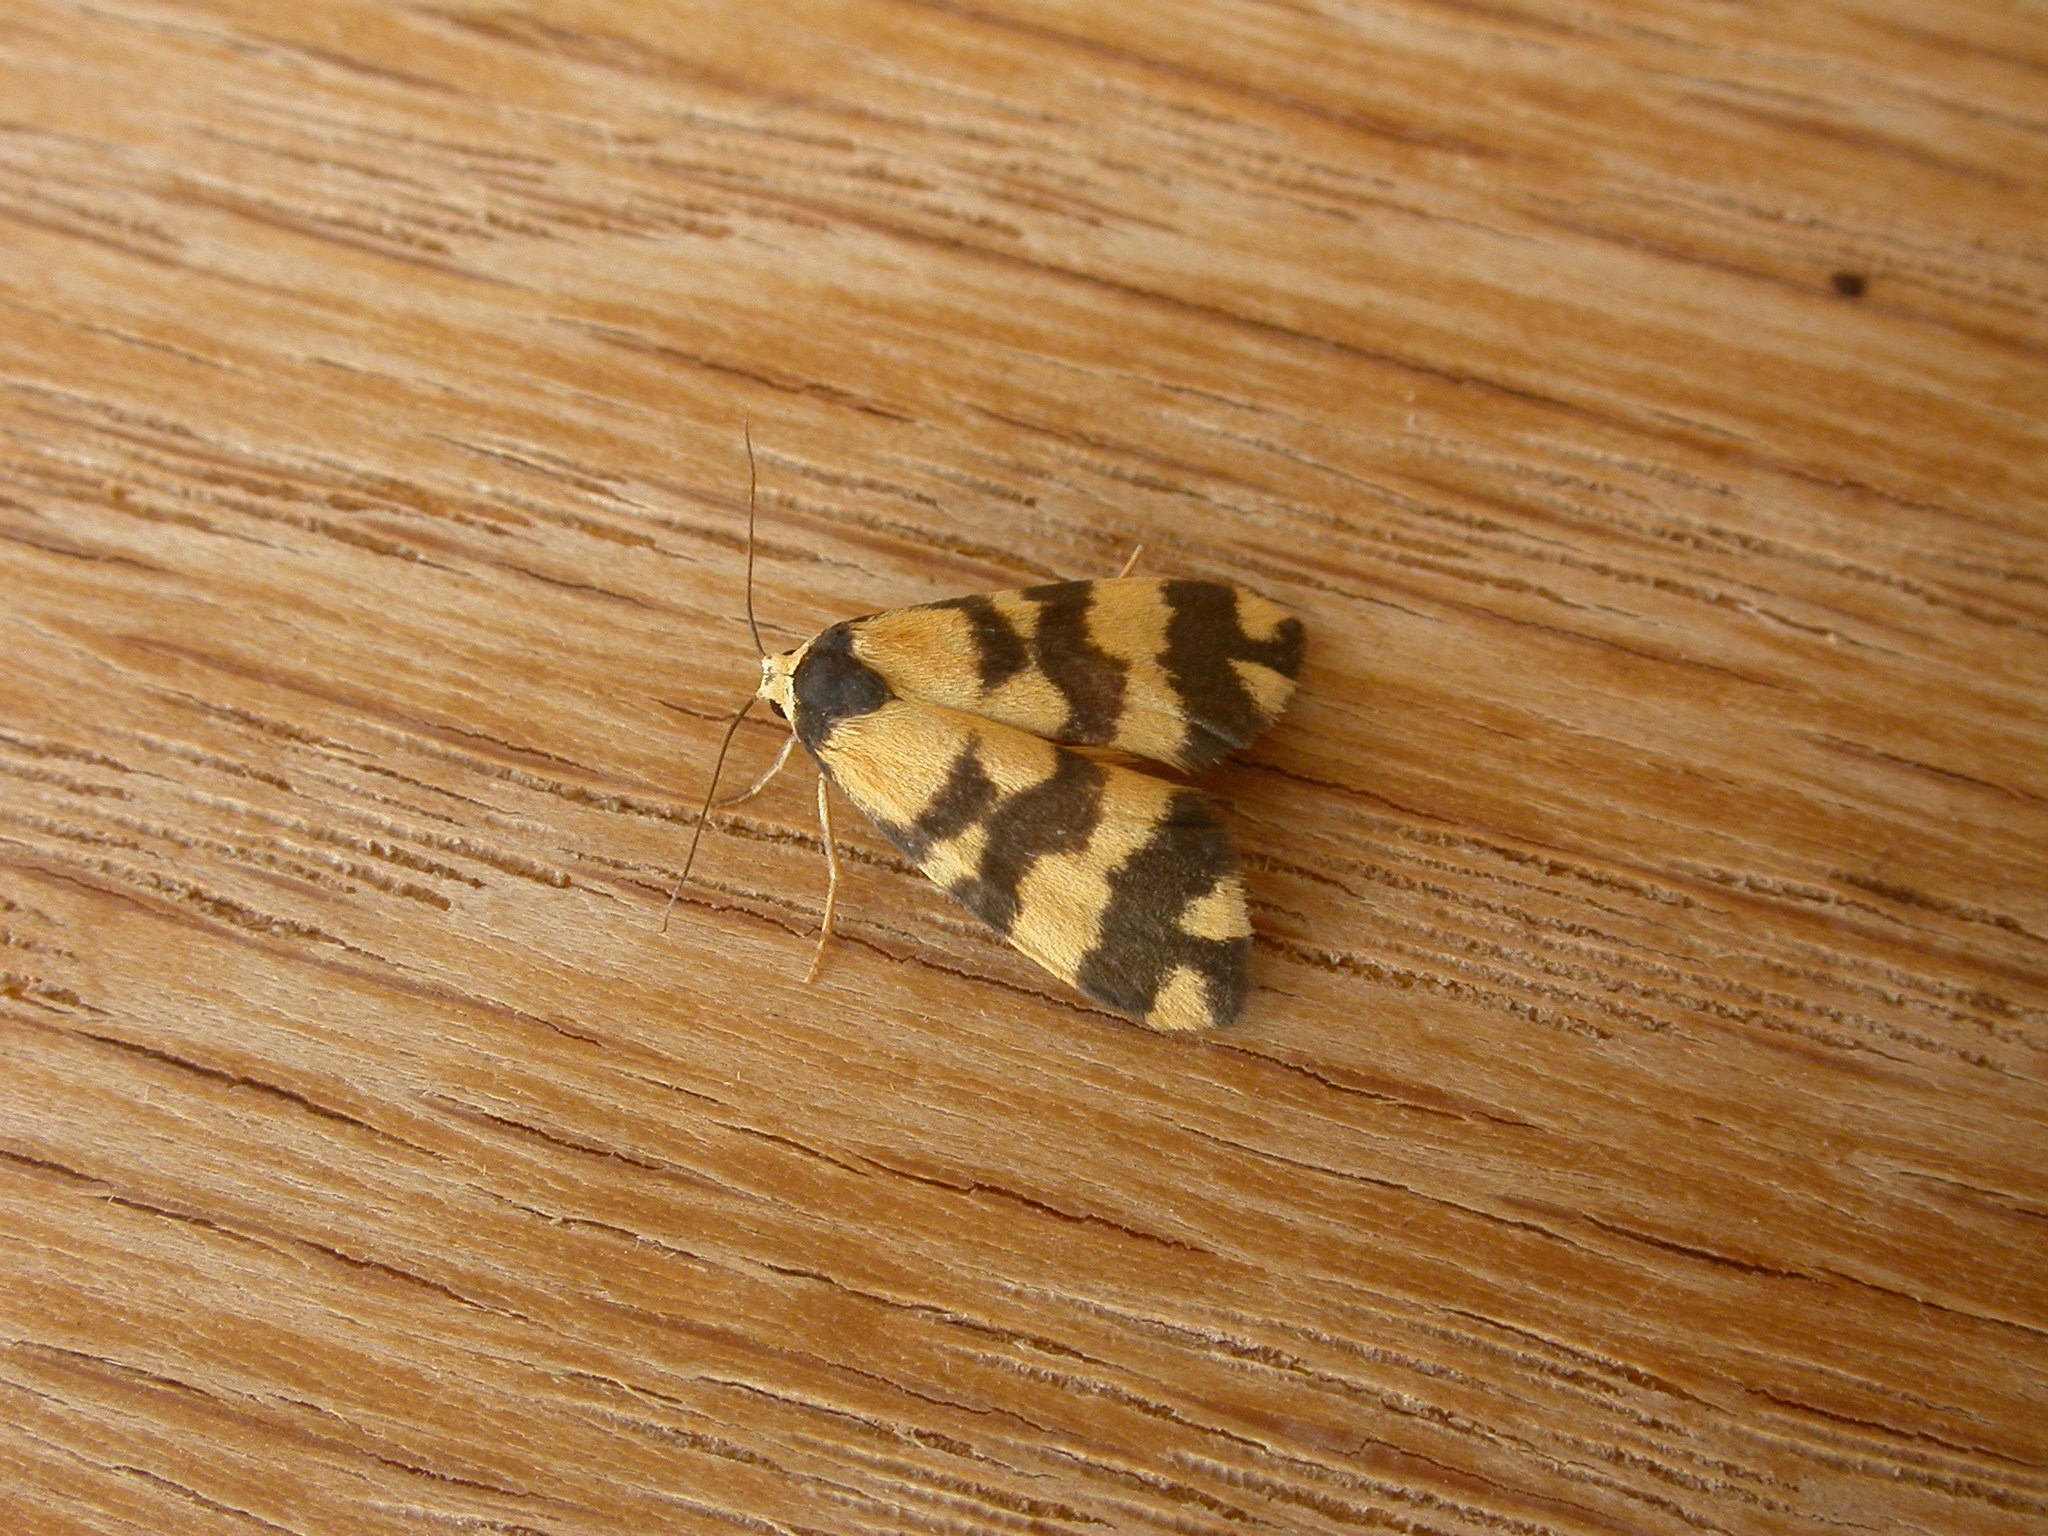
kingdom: Animalia
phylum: Arthropoda
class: Insecta
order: Lepidoptera
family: Erebidae
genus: Thallarcha
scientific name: Thallarcha partita
